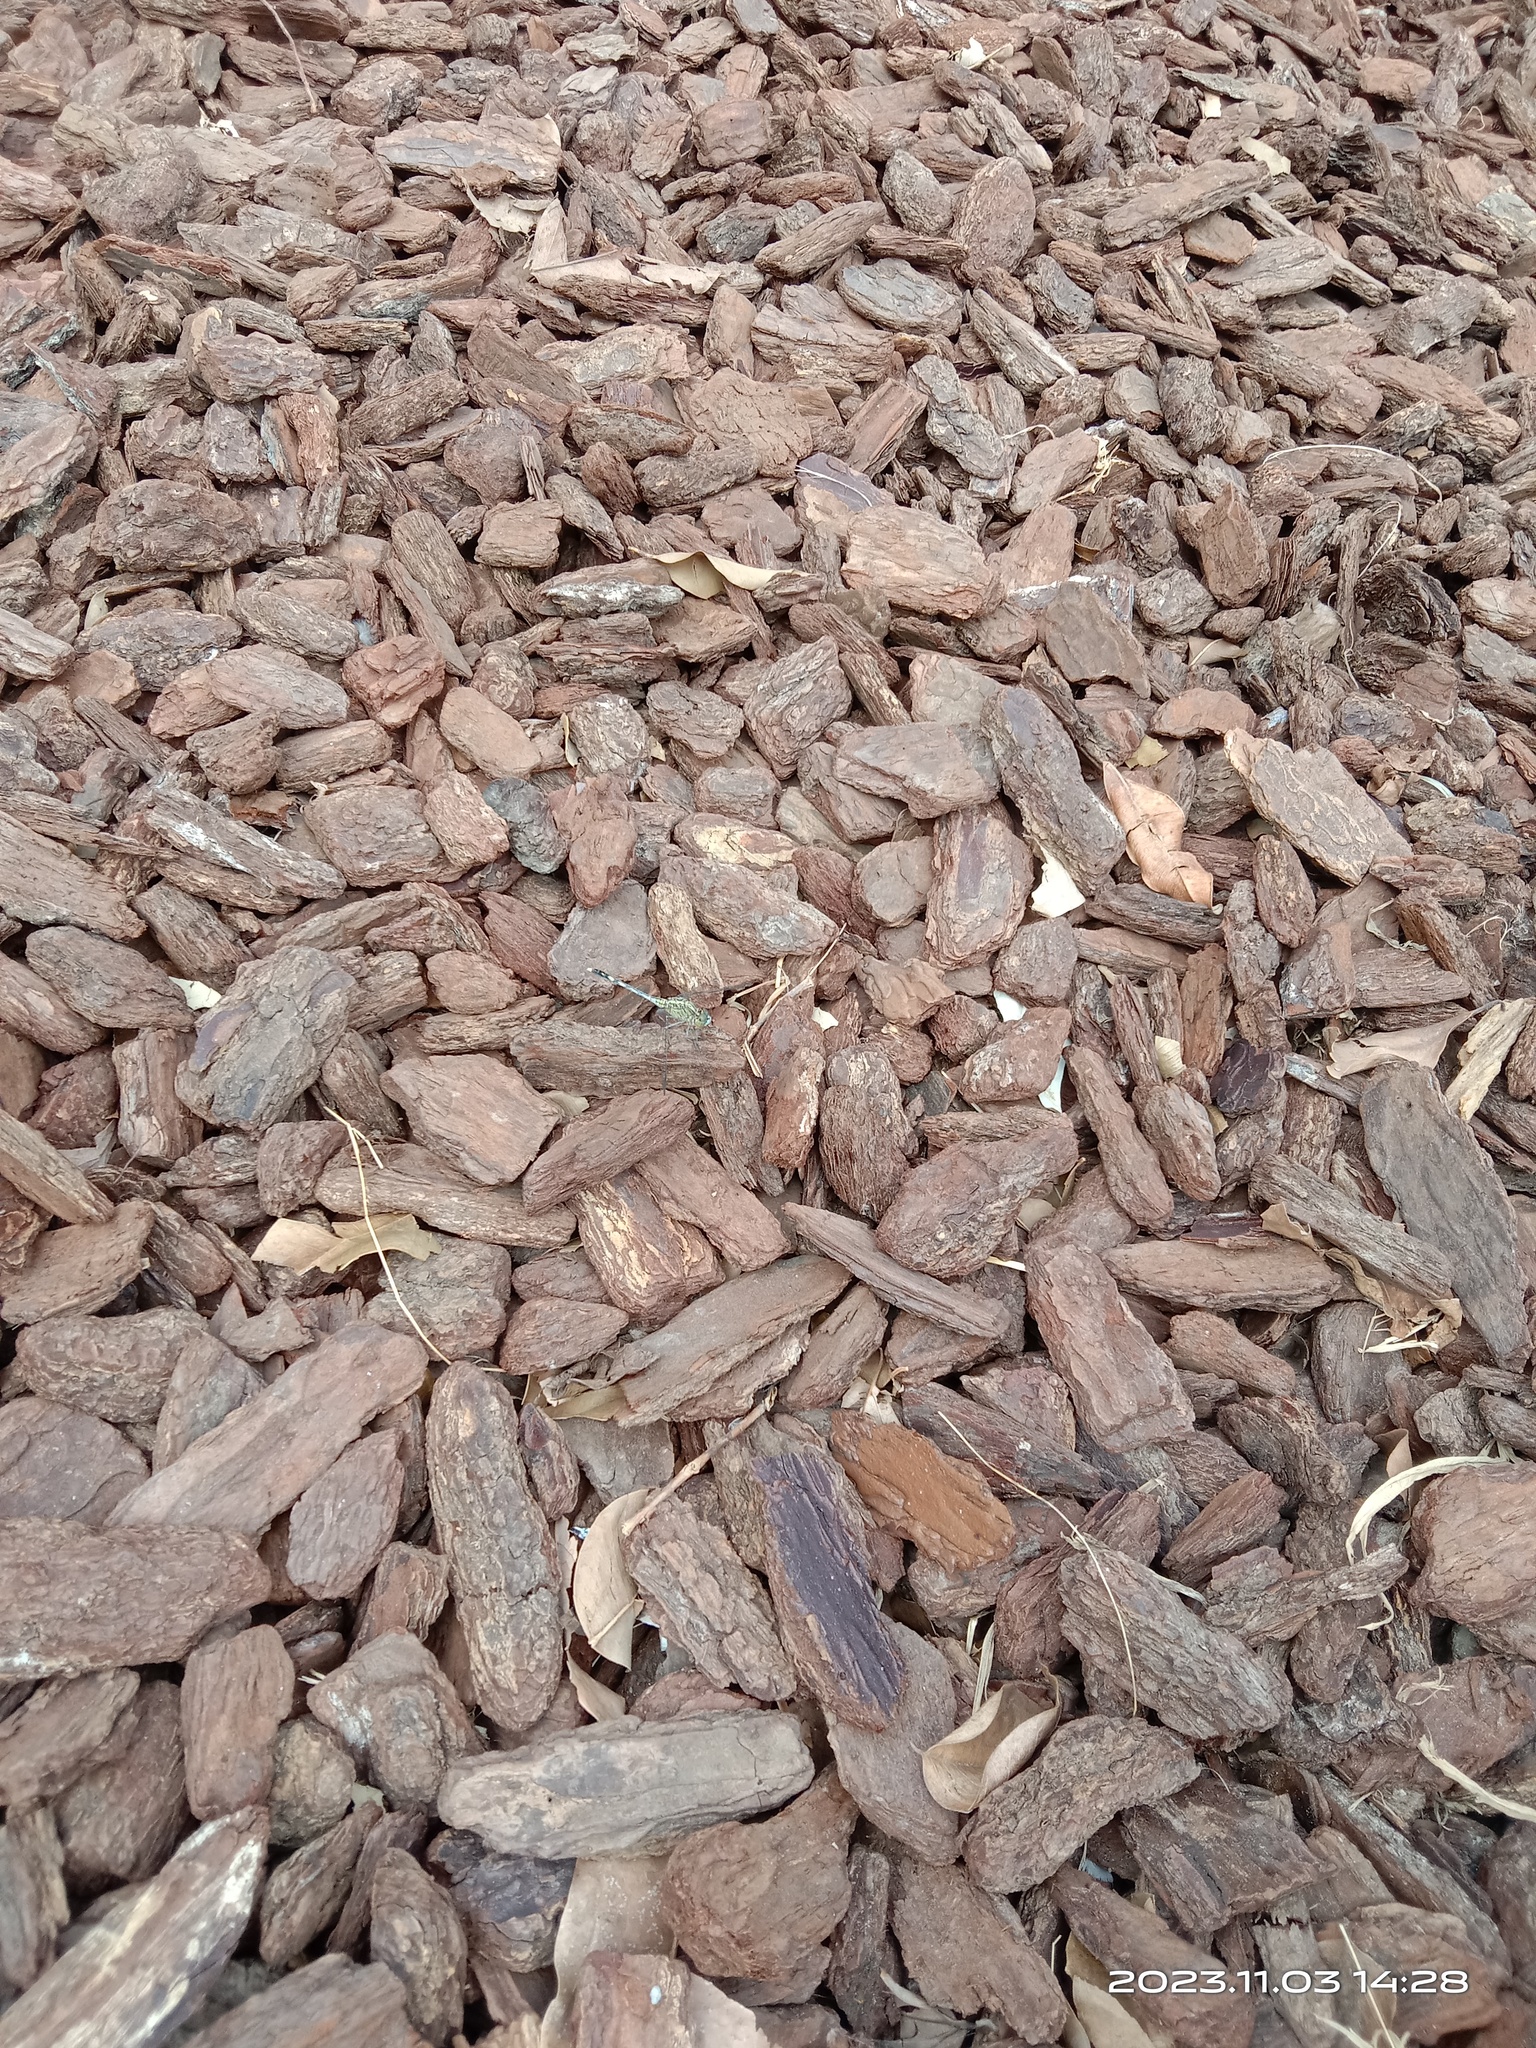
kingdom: Animalia
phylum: Arthropoda
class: Insecta
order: Odonata
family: Libellulidae
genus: Diplacodes
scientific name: Diplacodes trivialis
